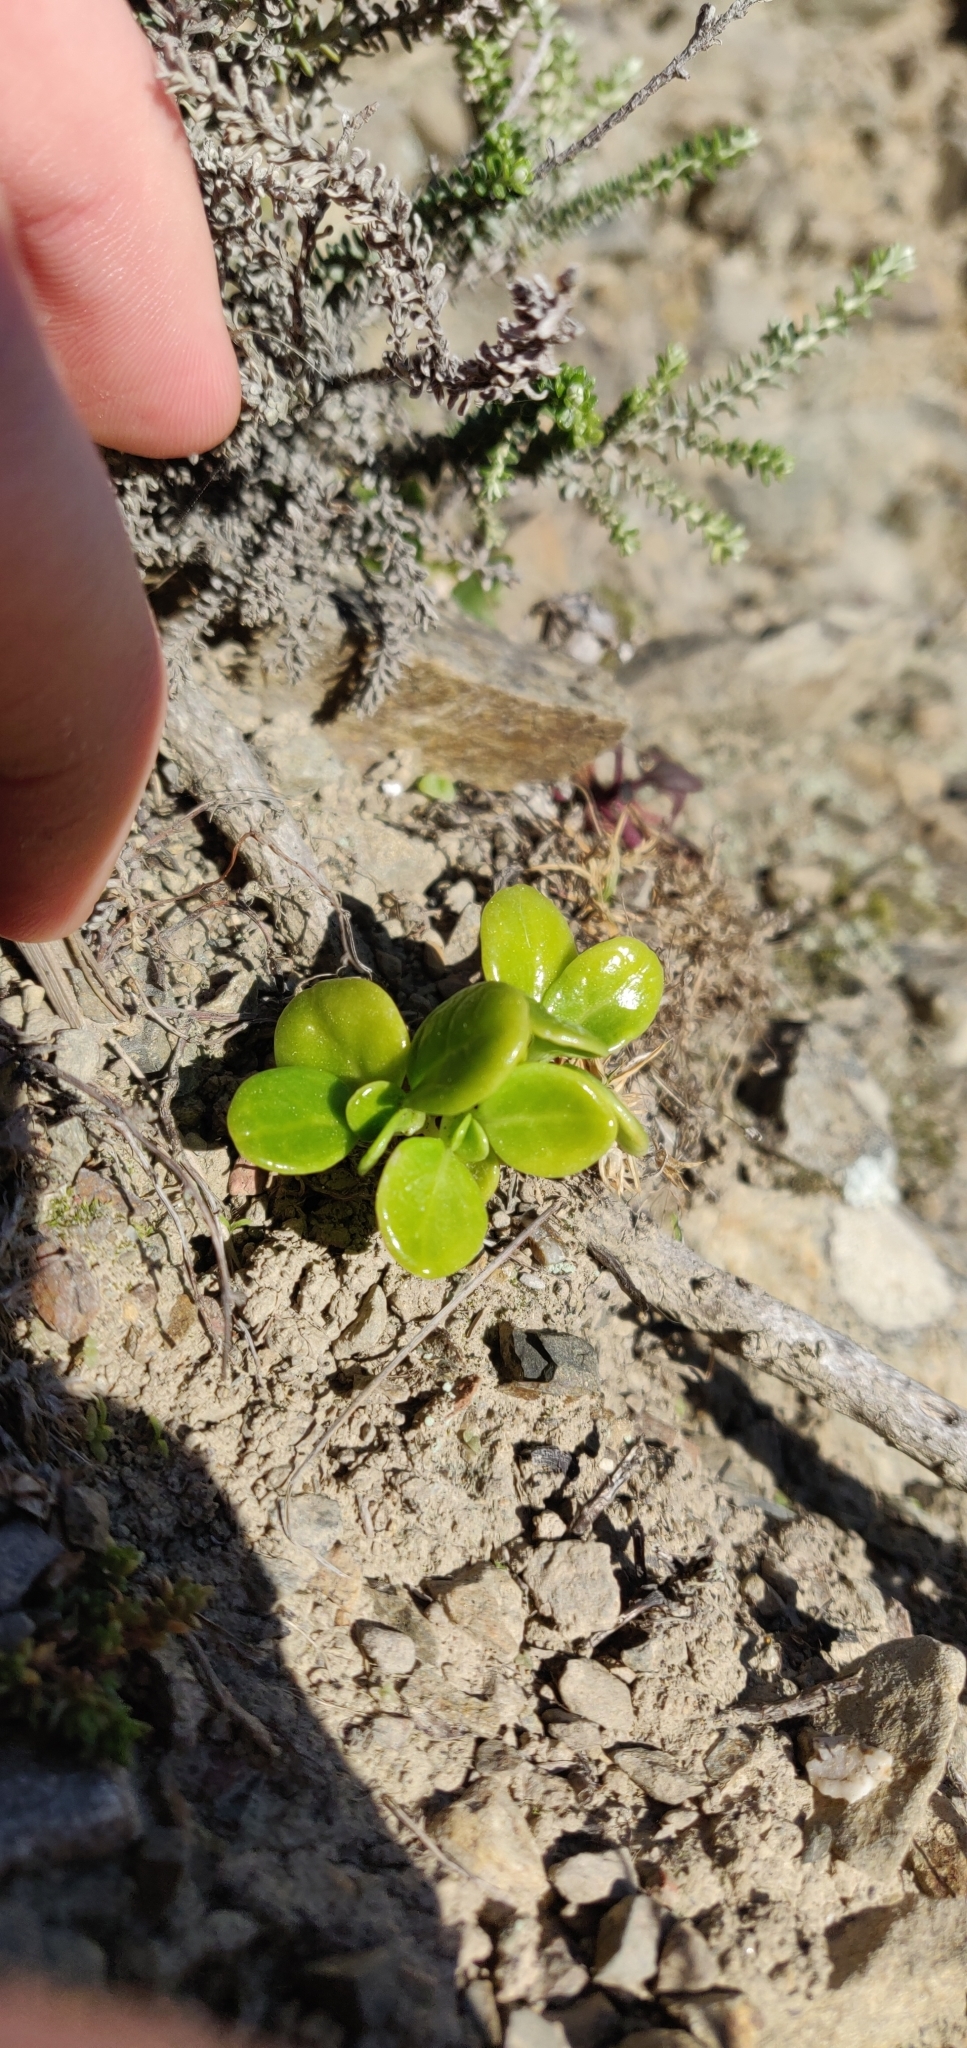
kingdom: Plantae
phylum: Tracheophyta
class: Magnoliopsida
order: Gentianales
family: Rubiaceae
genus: Coprosma
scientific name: Coprosma repens
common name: Tree bedstraw
